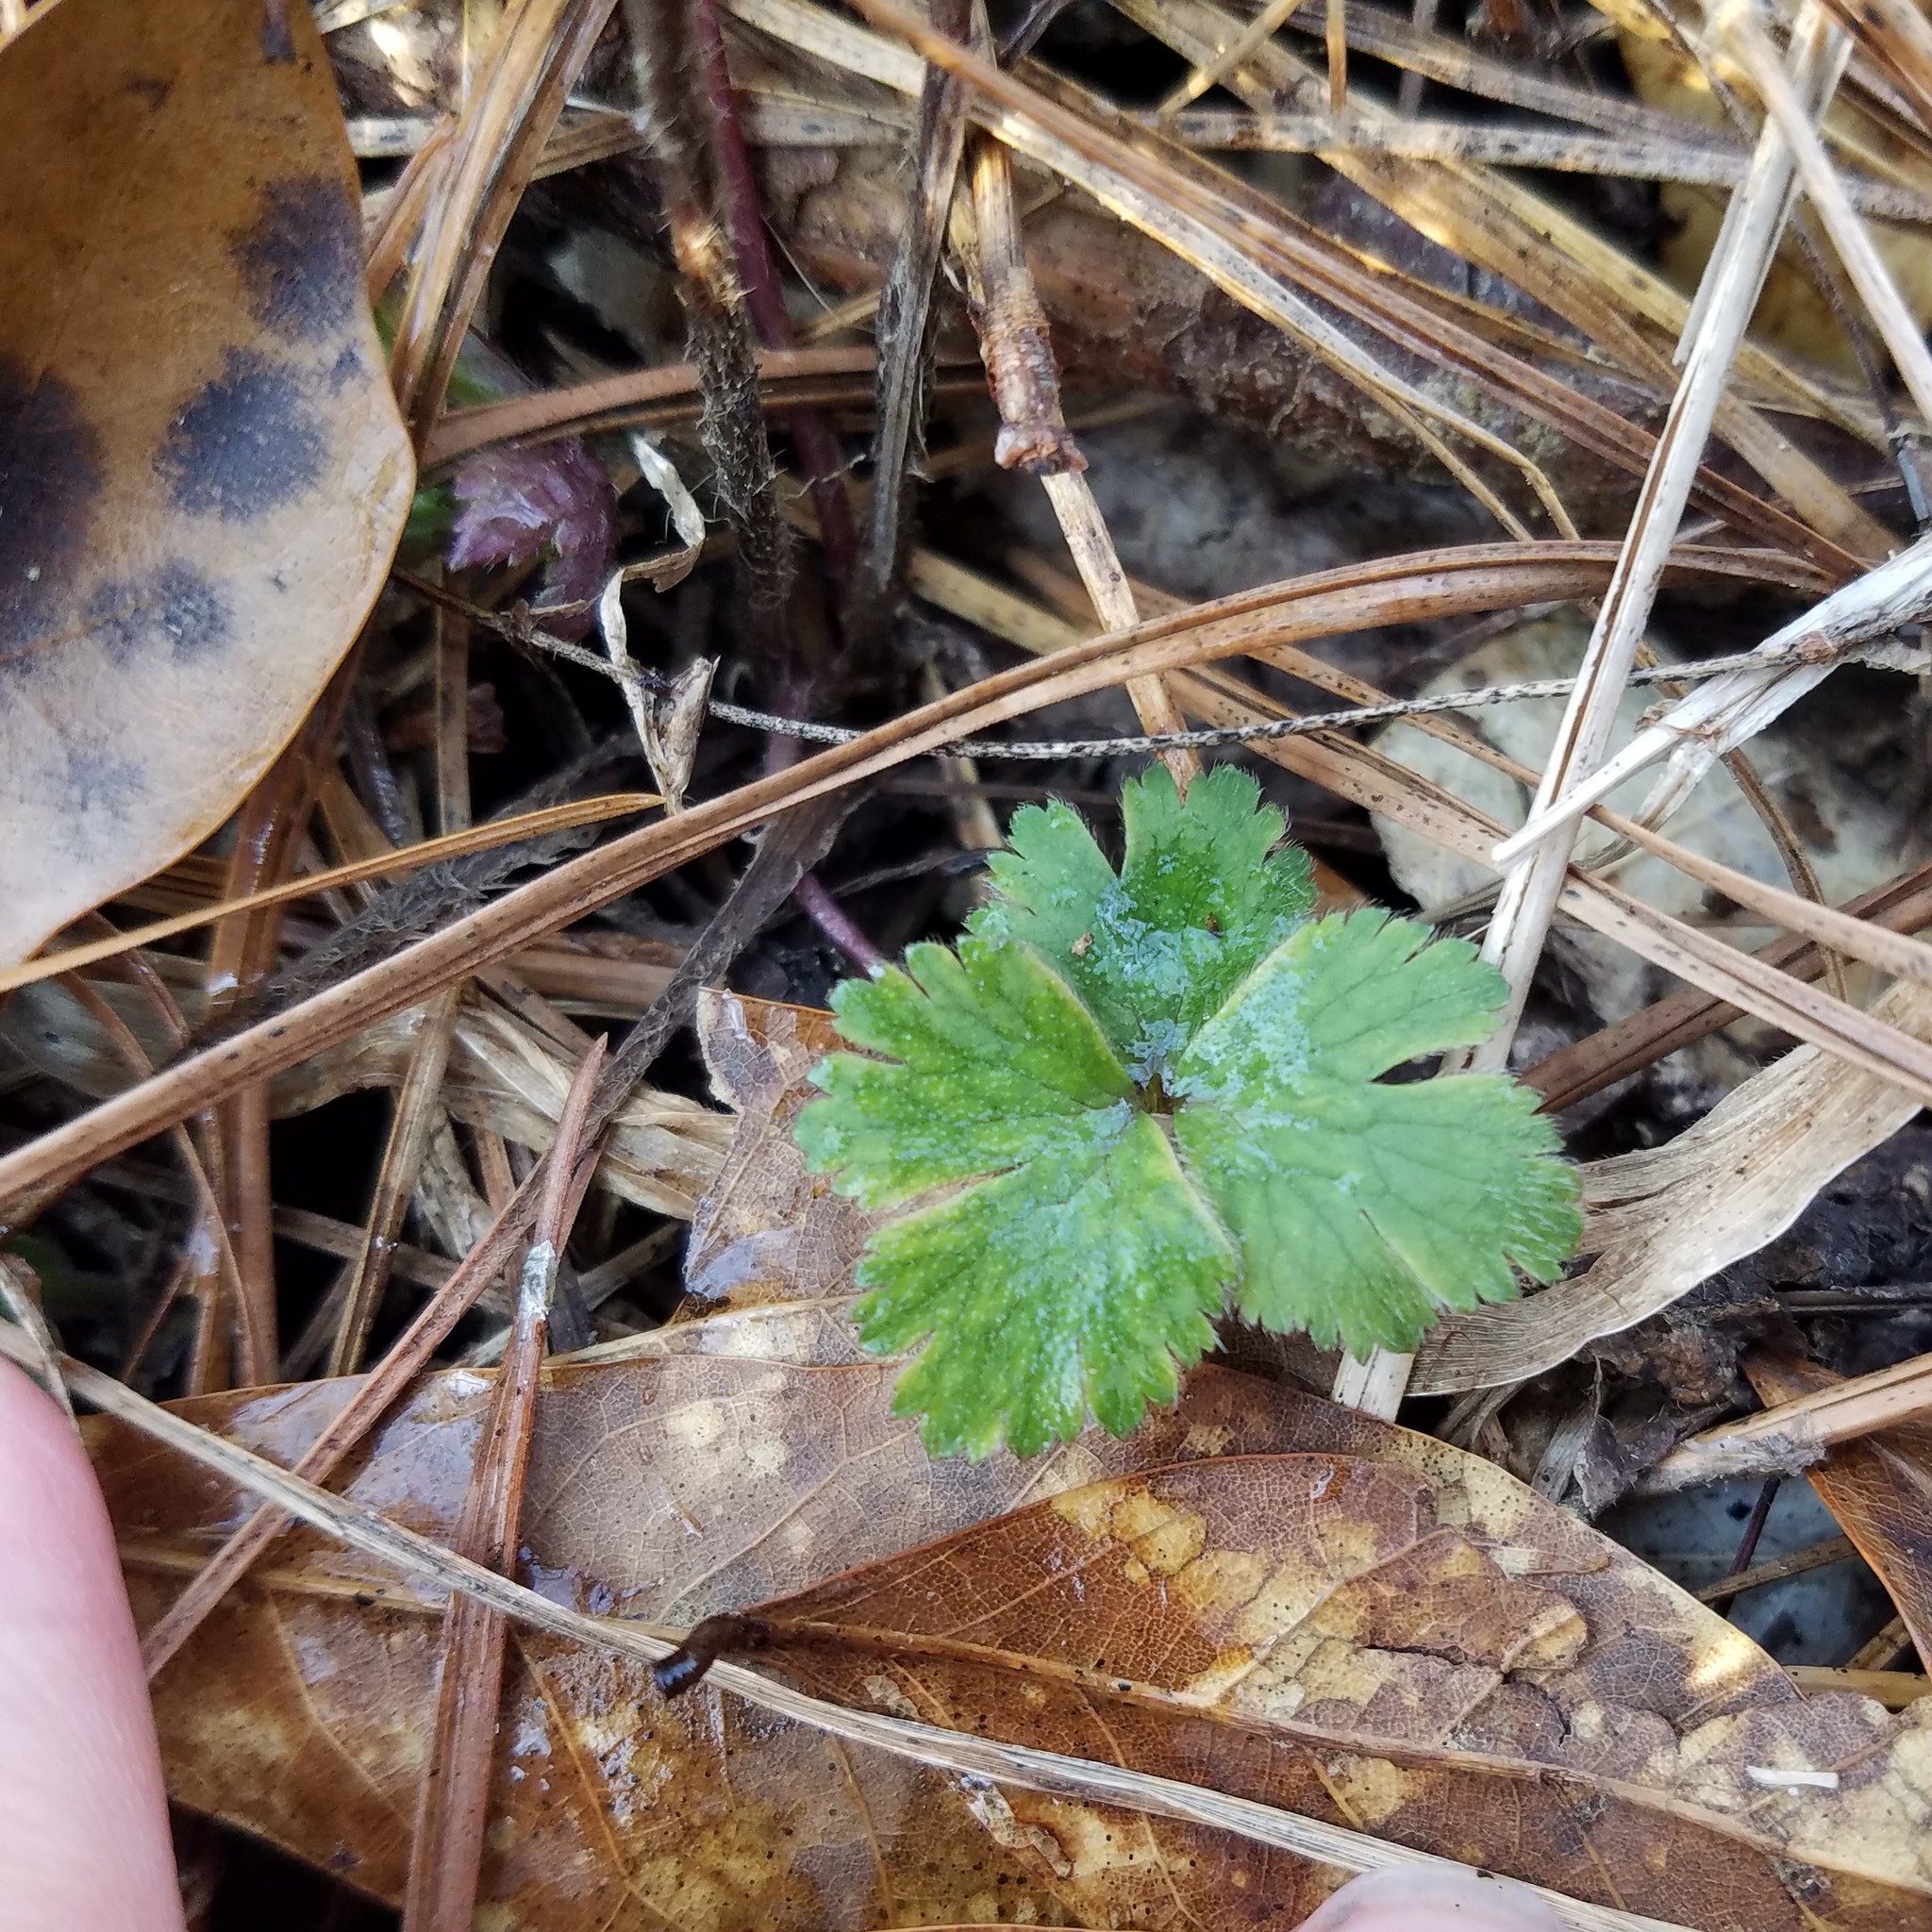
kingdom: Plantae
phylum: Tracheophyta
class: Magnoliopsida
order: Ranunculales
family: Ranunculaceae
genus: Anemone
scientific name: Anemone virginiana
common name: Tall anemone
